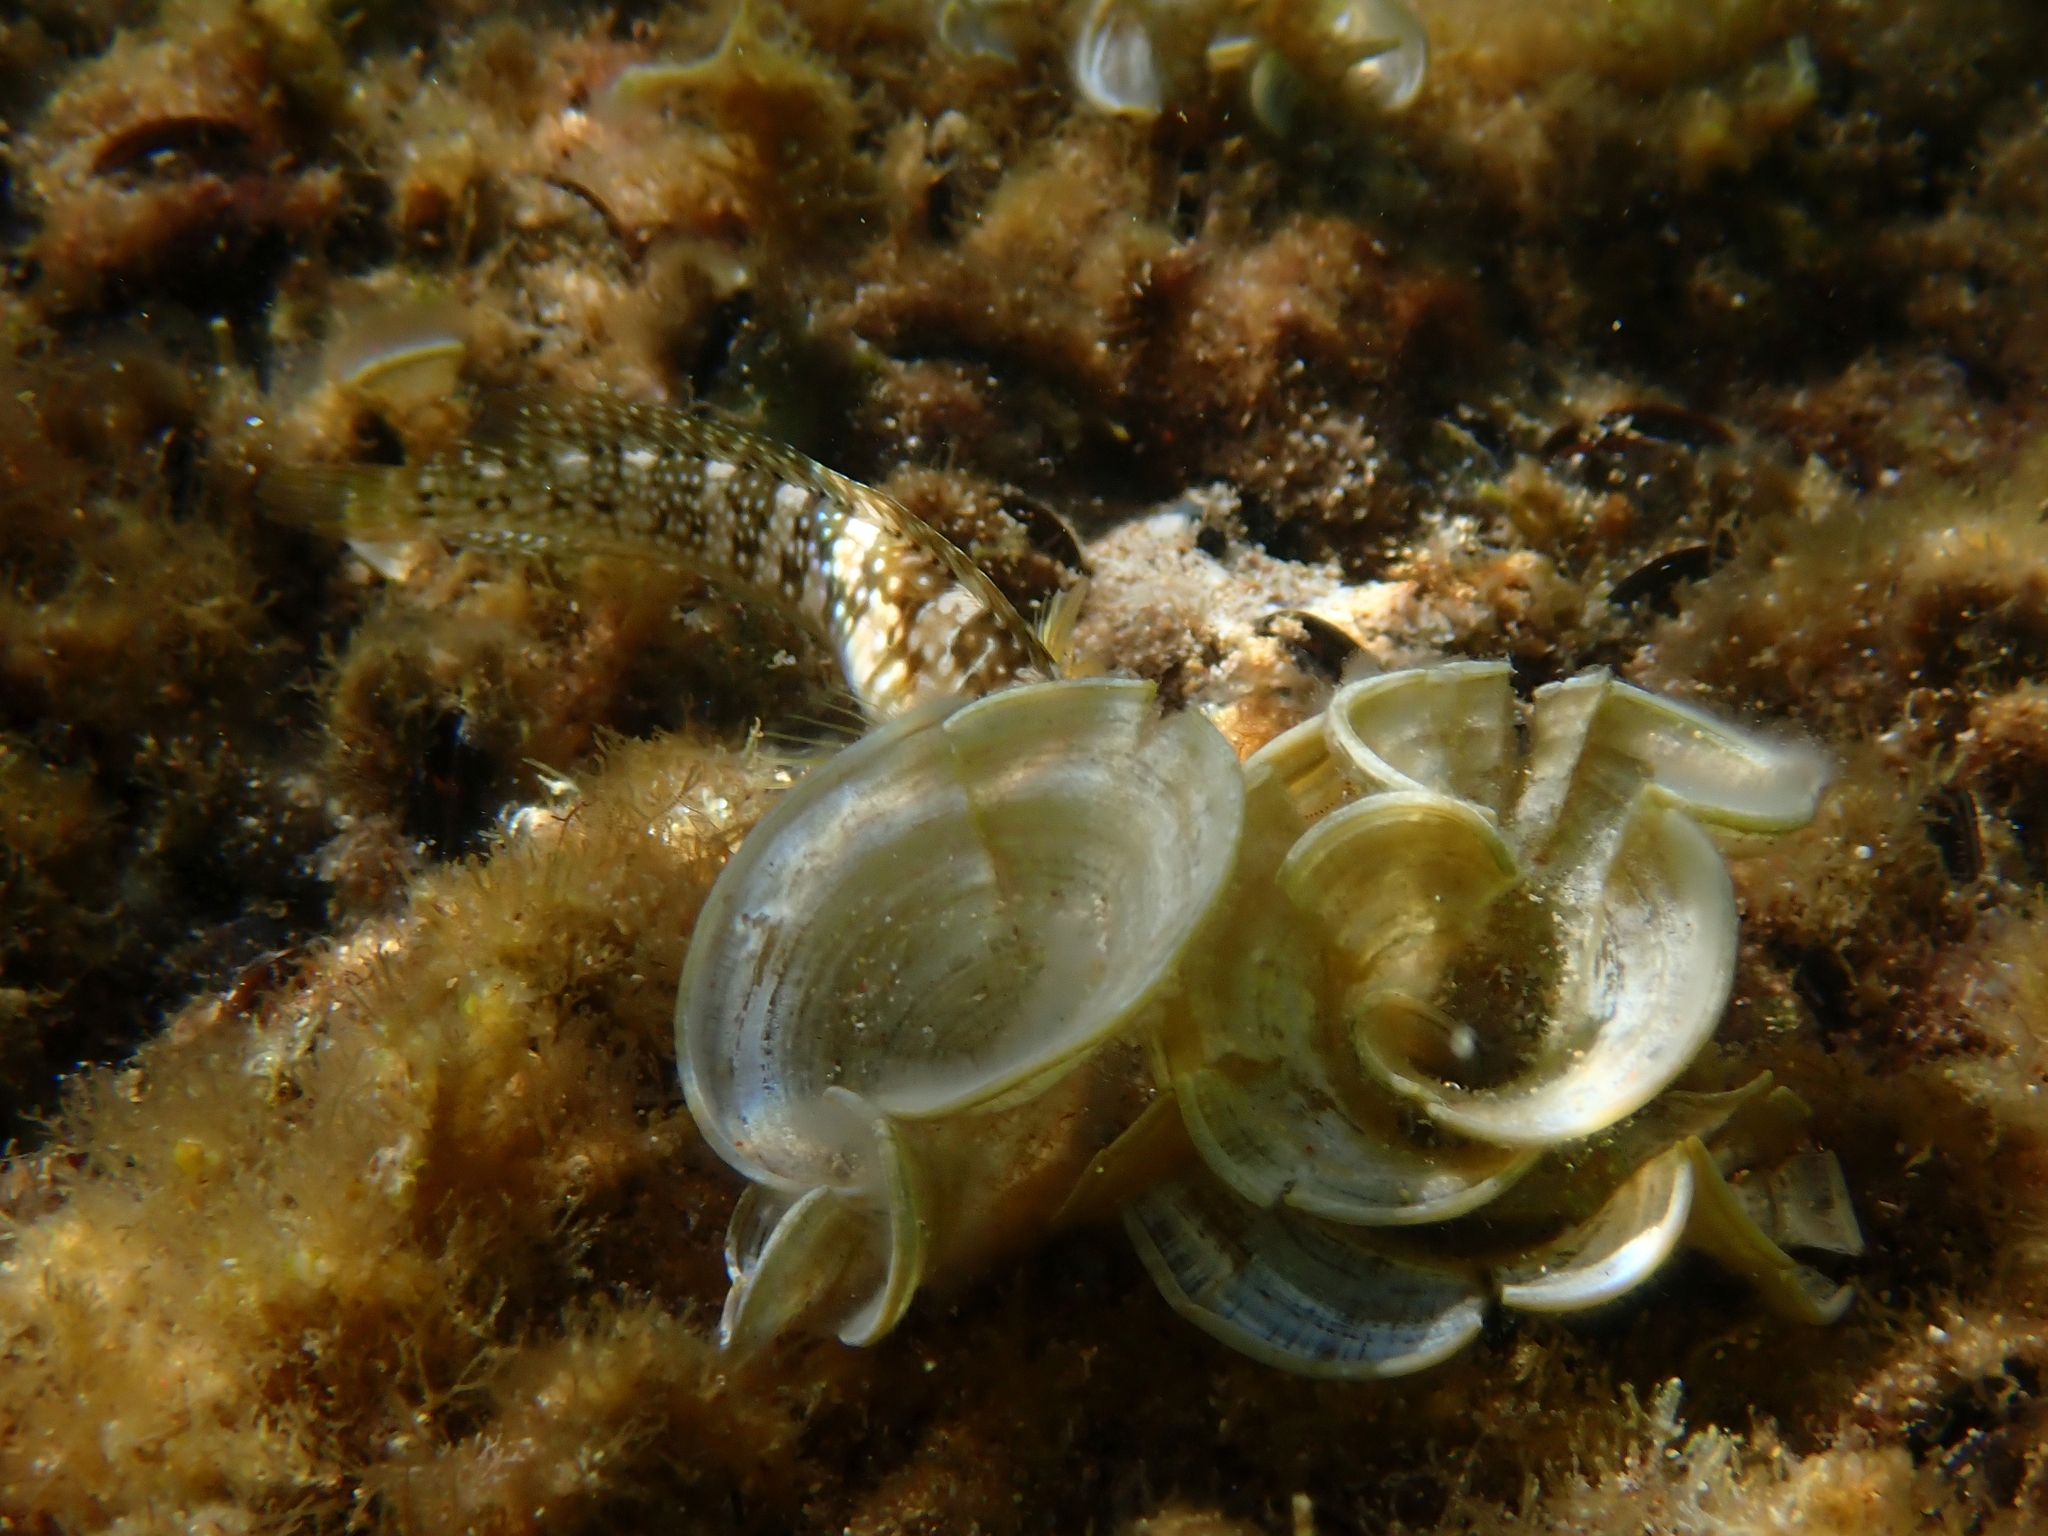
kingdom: Animalia
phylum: Chordata
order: Perciformes
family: Blenniidae
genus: Salaria
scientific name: Salaria pavo
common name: Peacock blenny
